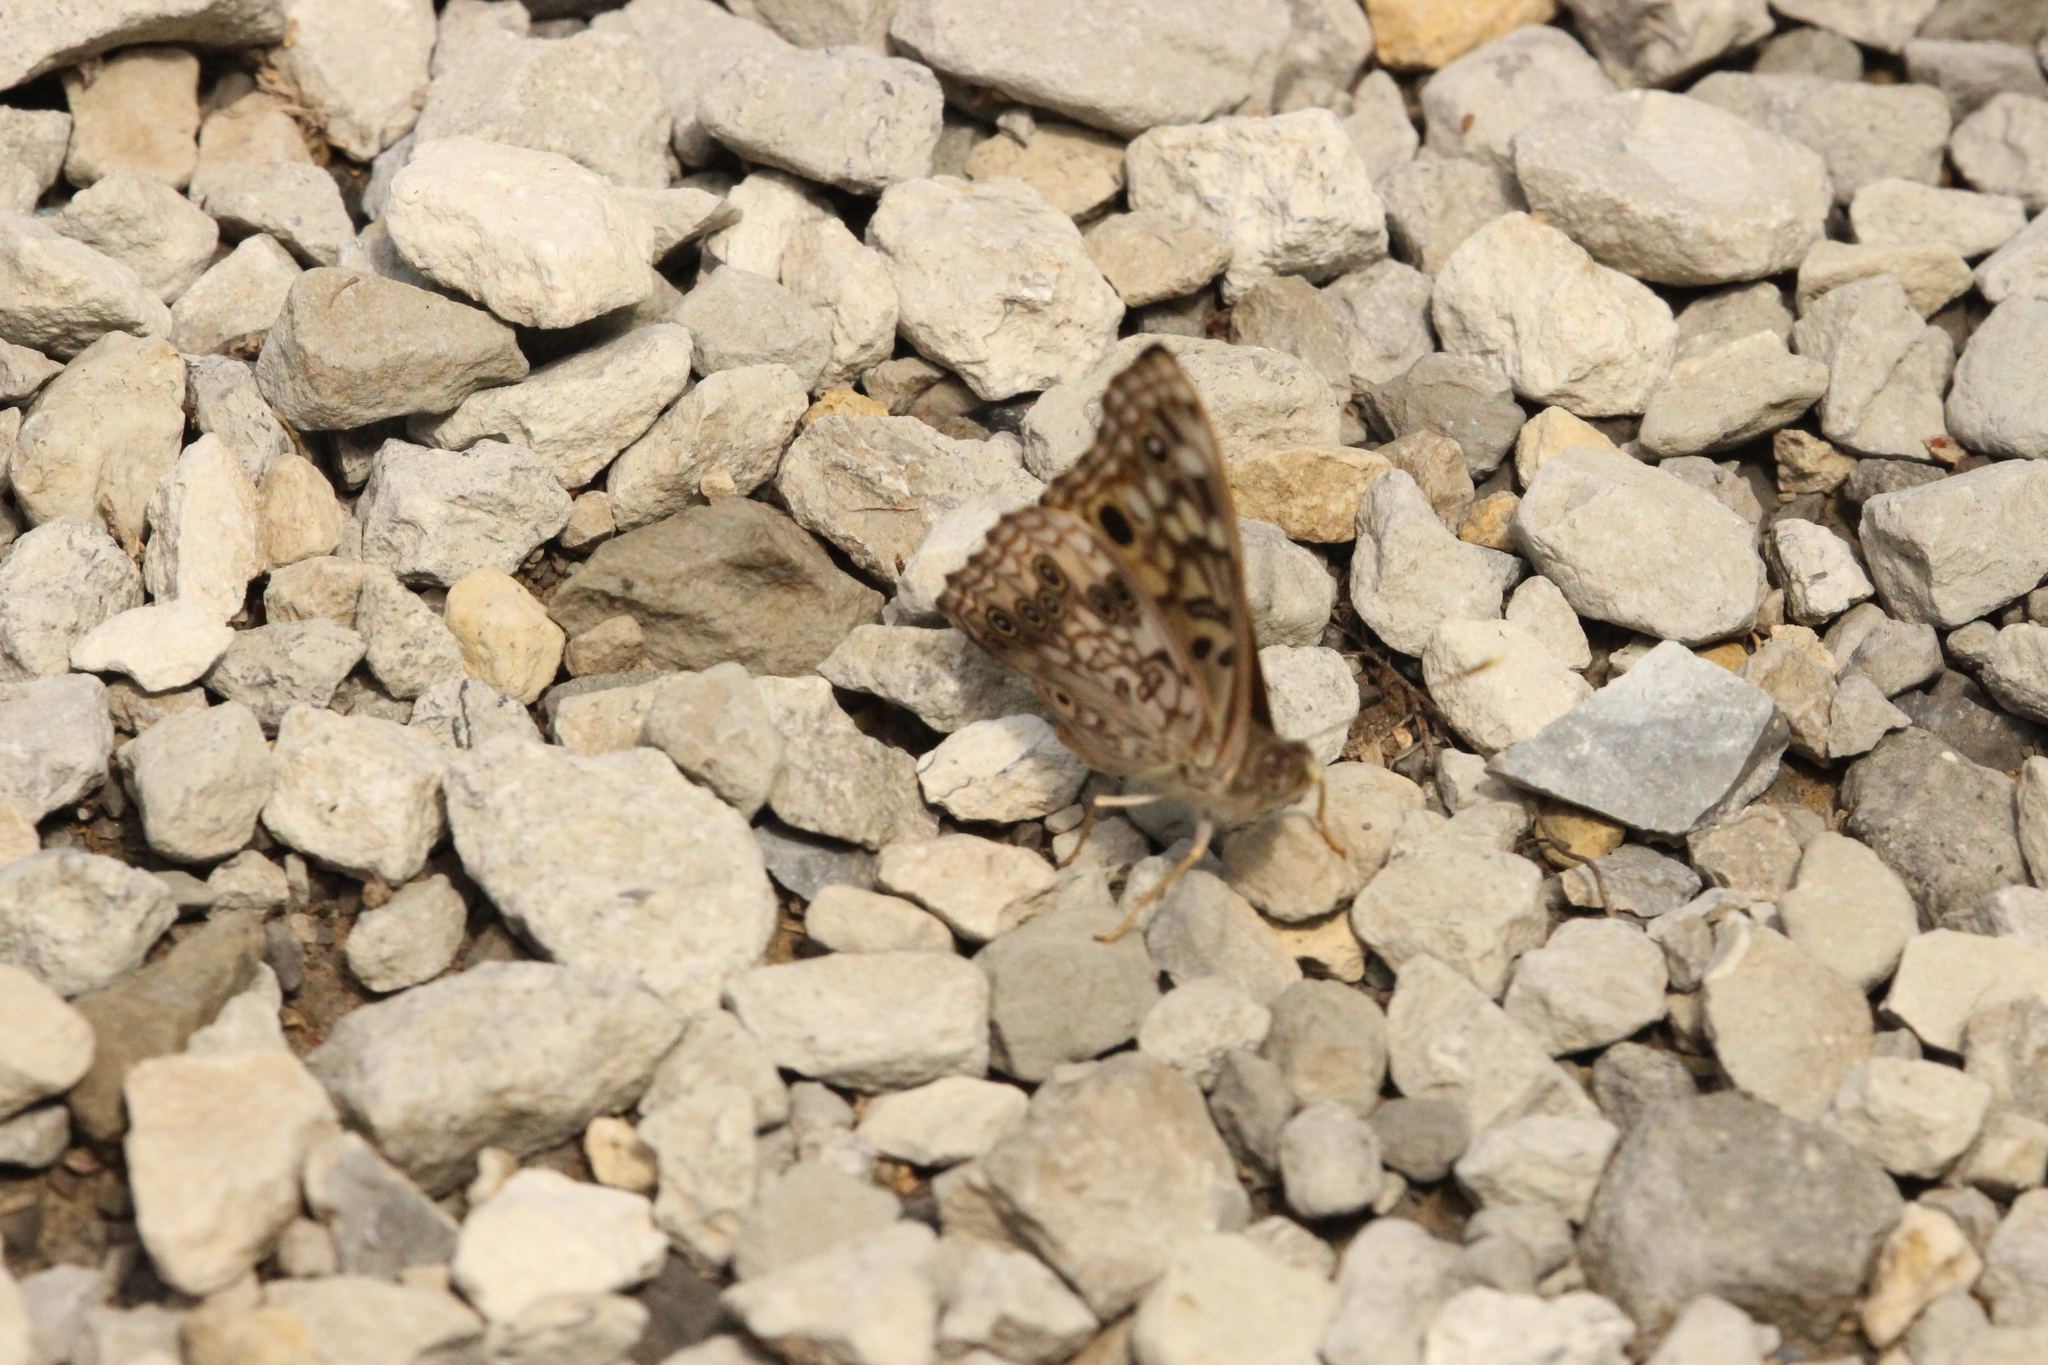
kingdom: Animalia
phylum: Arthropoda
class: Insecta
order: Lepidoptera
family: Nymphalidae
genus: Asterocampa
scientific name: Asterocampa celtis
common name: Hackberry emperor
